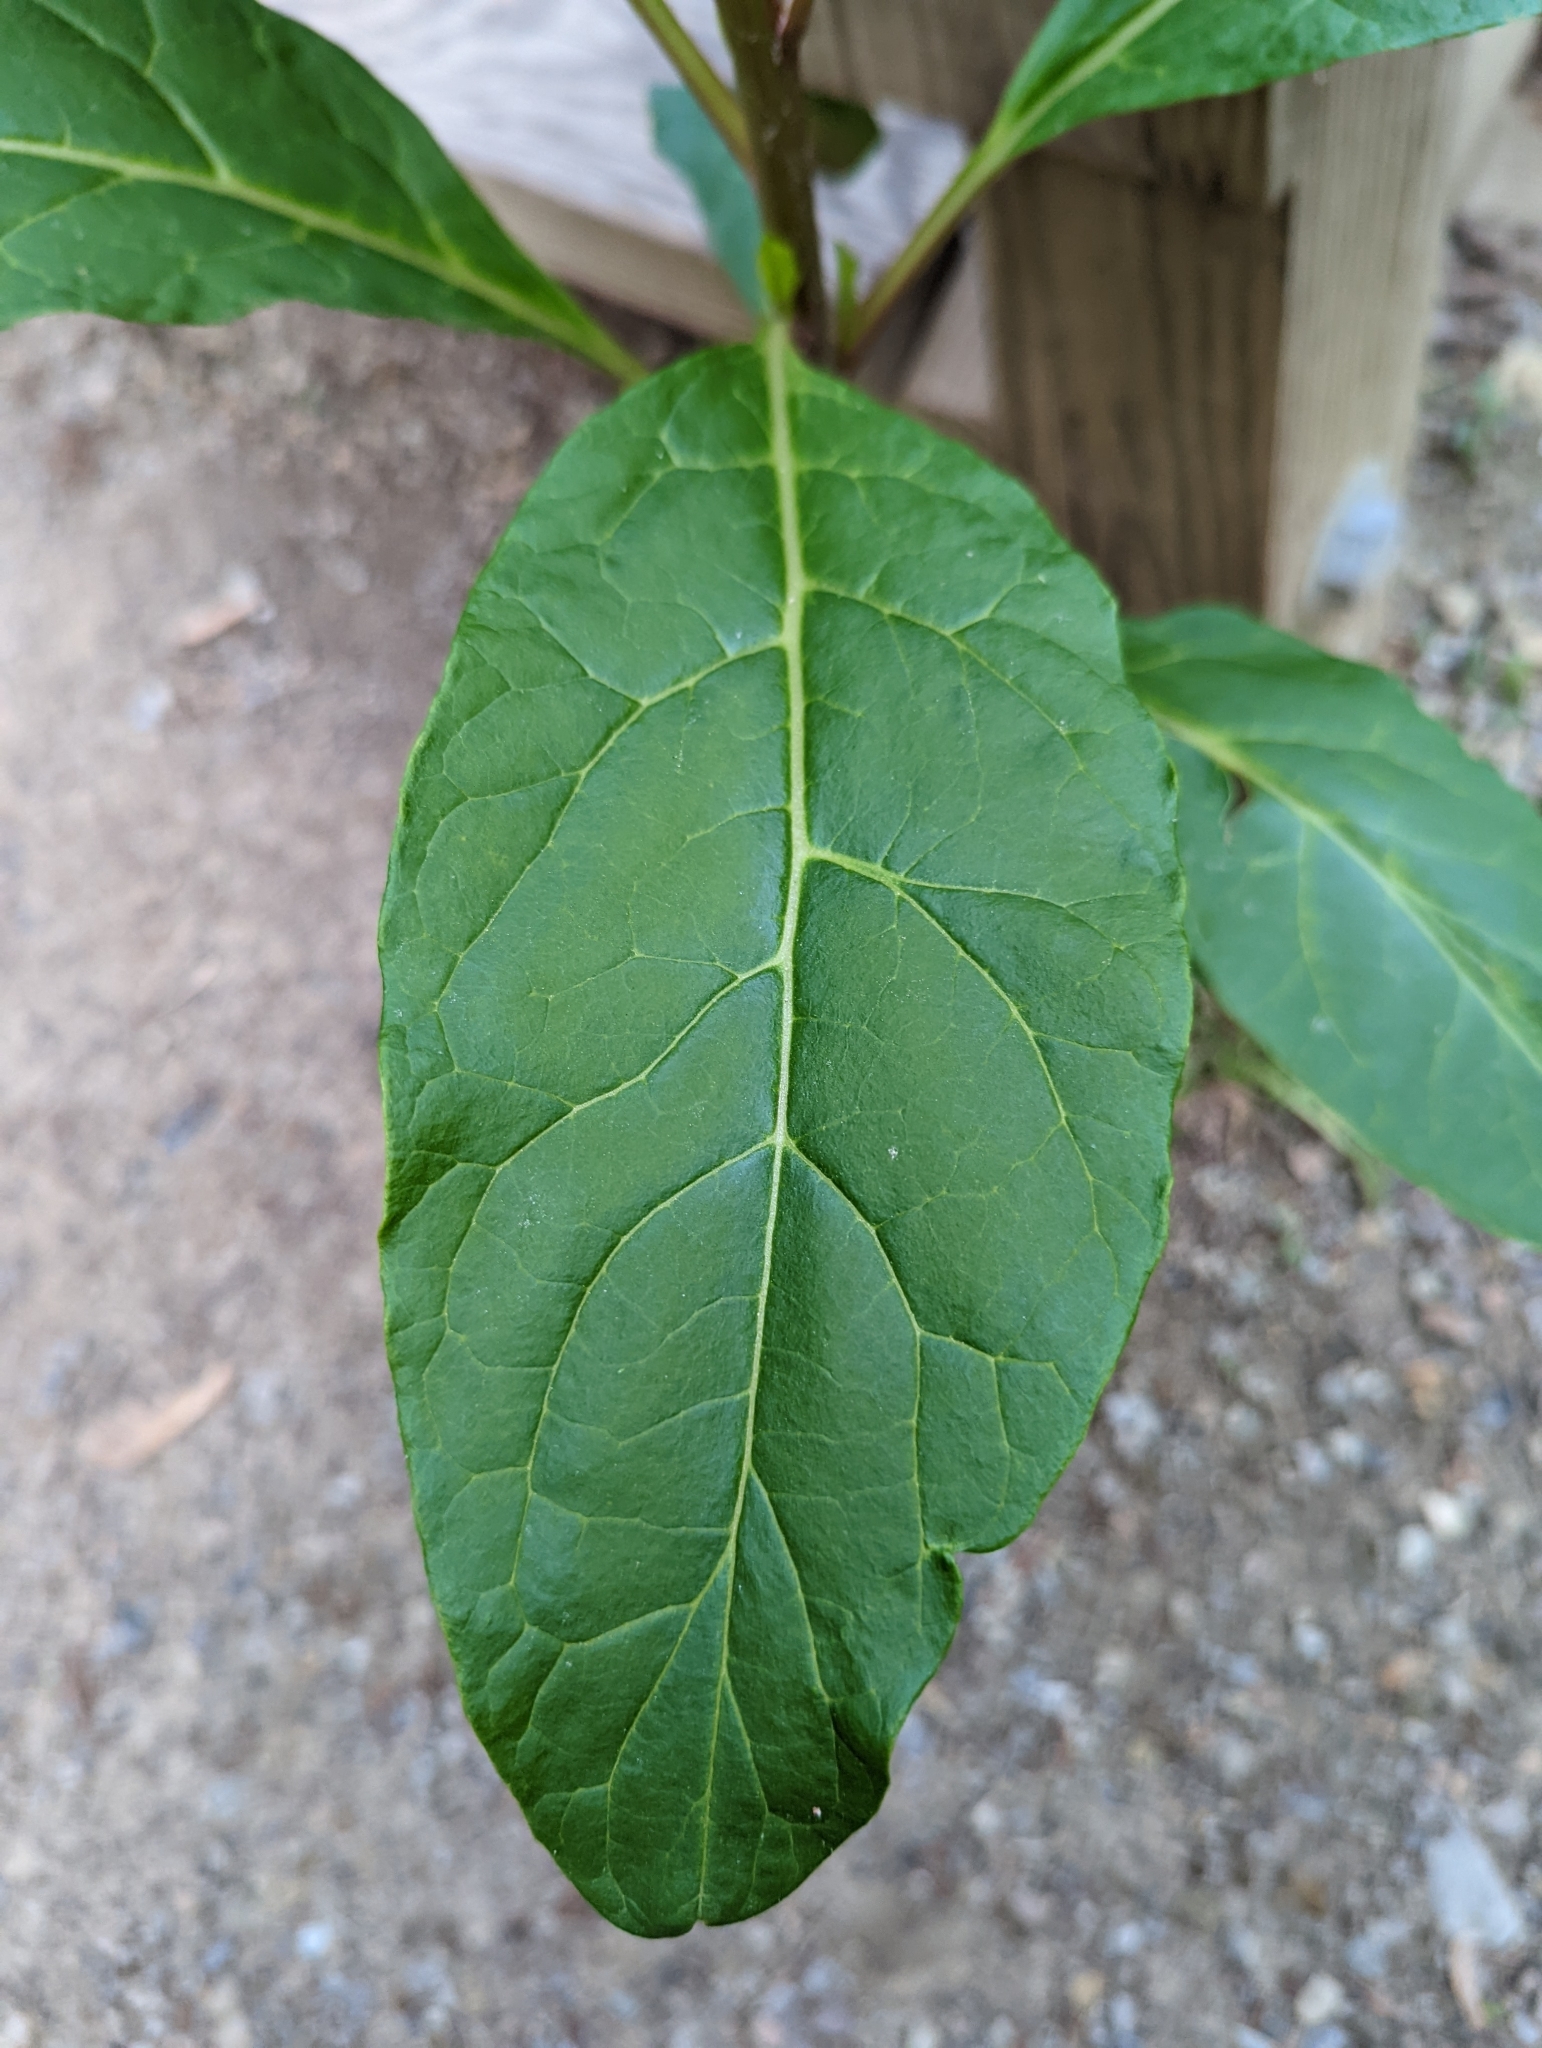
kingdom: Plantae
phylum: Tracheophyta
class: Magnoliopsida
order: Caryophyllales
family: Phytolaccaceae
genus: Phytolacca
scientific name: Phytolacca americana
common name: American pokeweed
